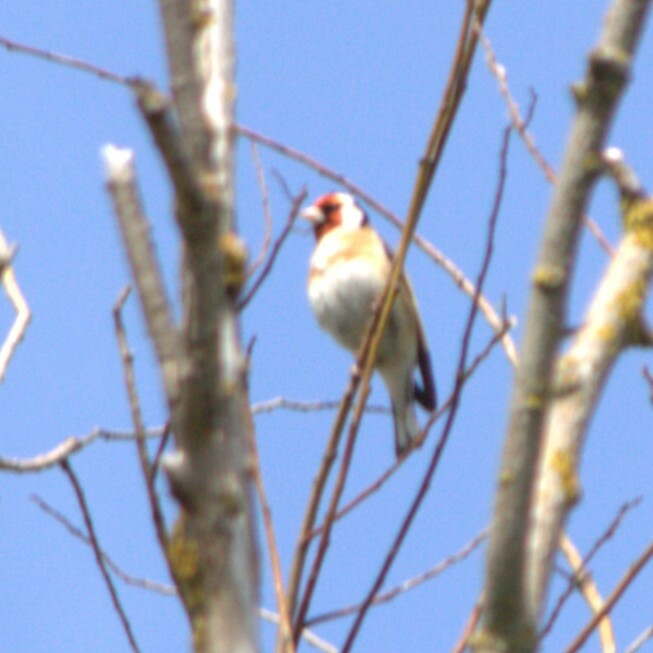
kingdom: Animalia
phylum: Chordata
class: Aves
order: Passeriformes
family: Fringillidae
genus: Carduelis
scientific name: Carduelis carduelis
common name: European goldfinch
